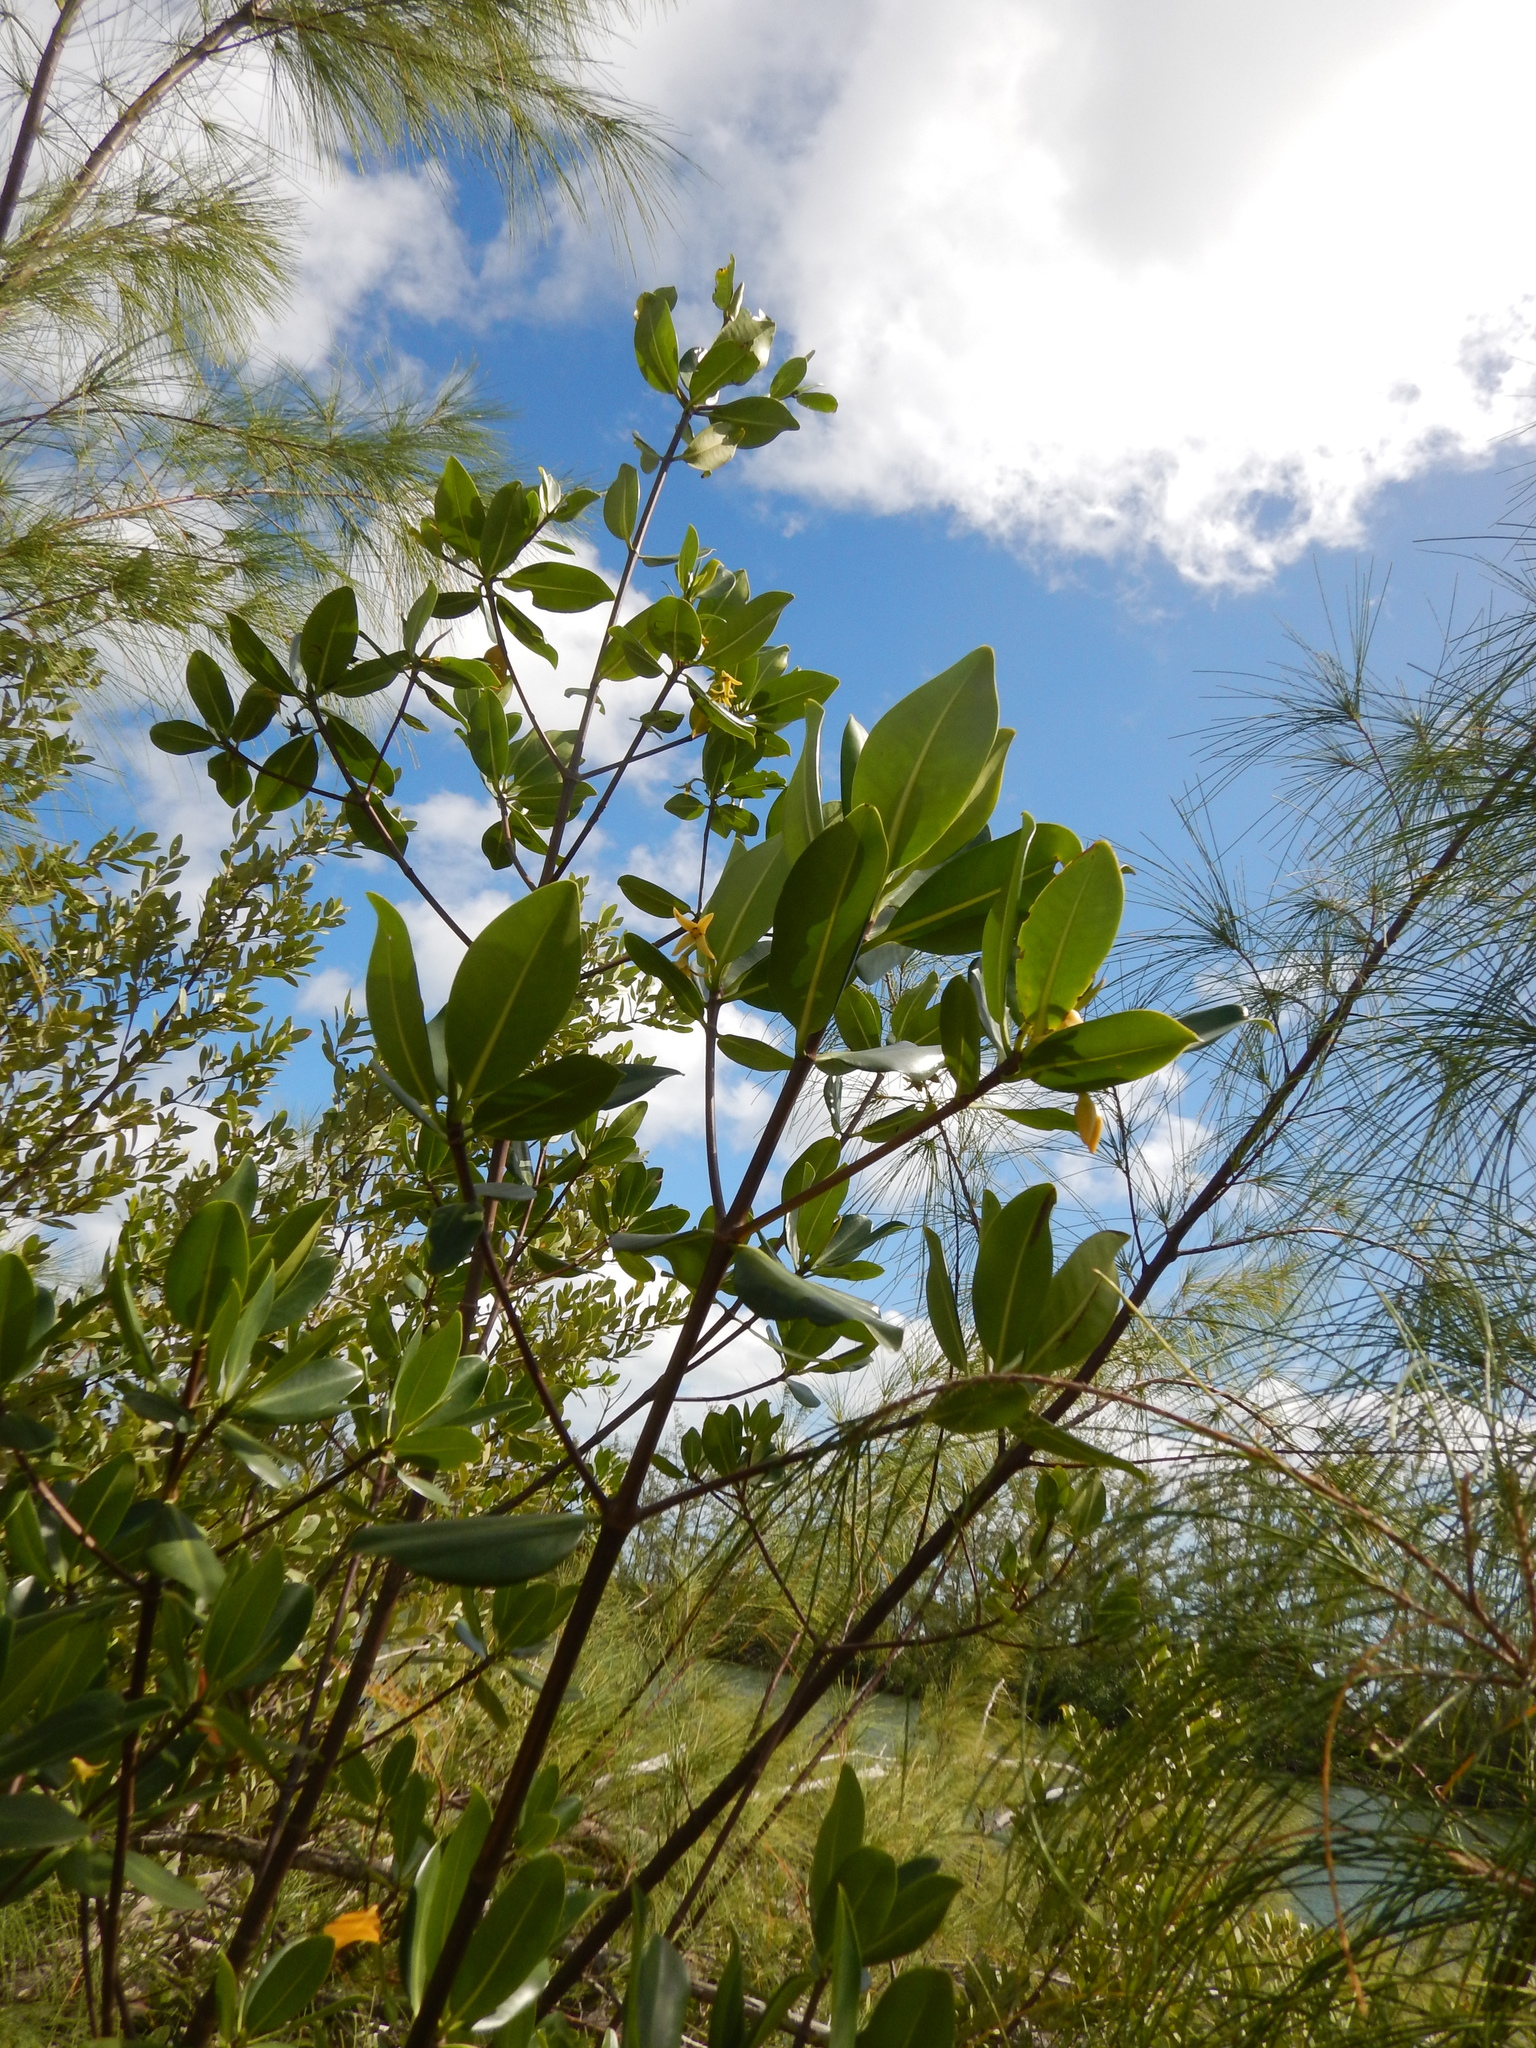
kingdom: Plantae
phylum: Tracheophyta
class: Magnoliopsida
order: Malpighiales
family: Rhizophoraceae
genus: Rhizophora
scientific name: Rhizophora mangle
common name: Red mangrove
